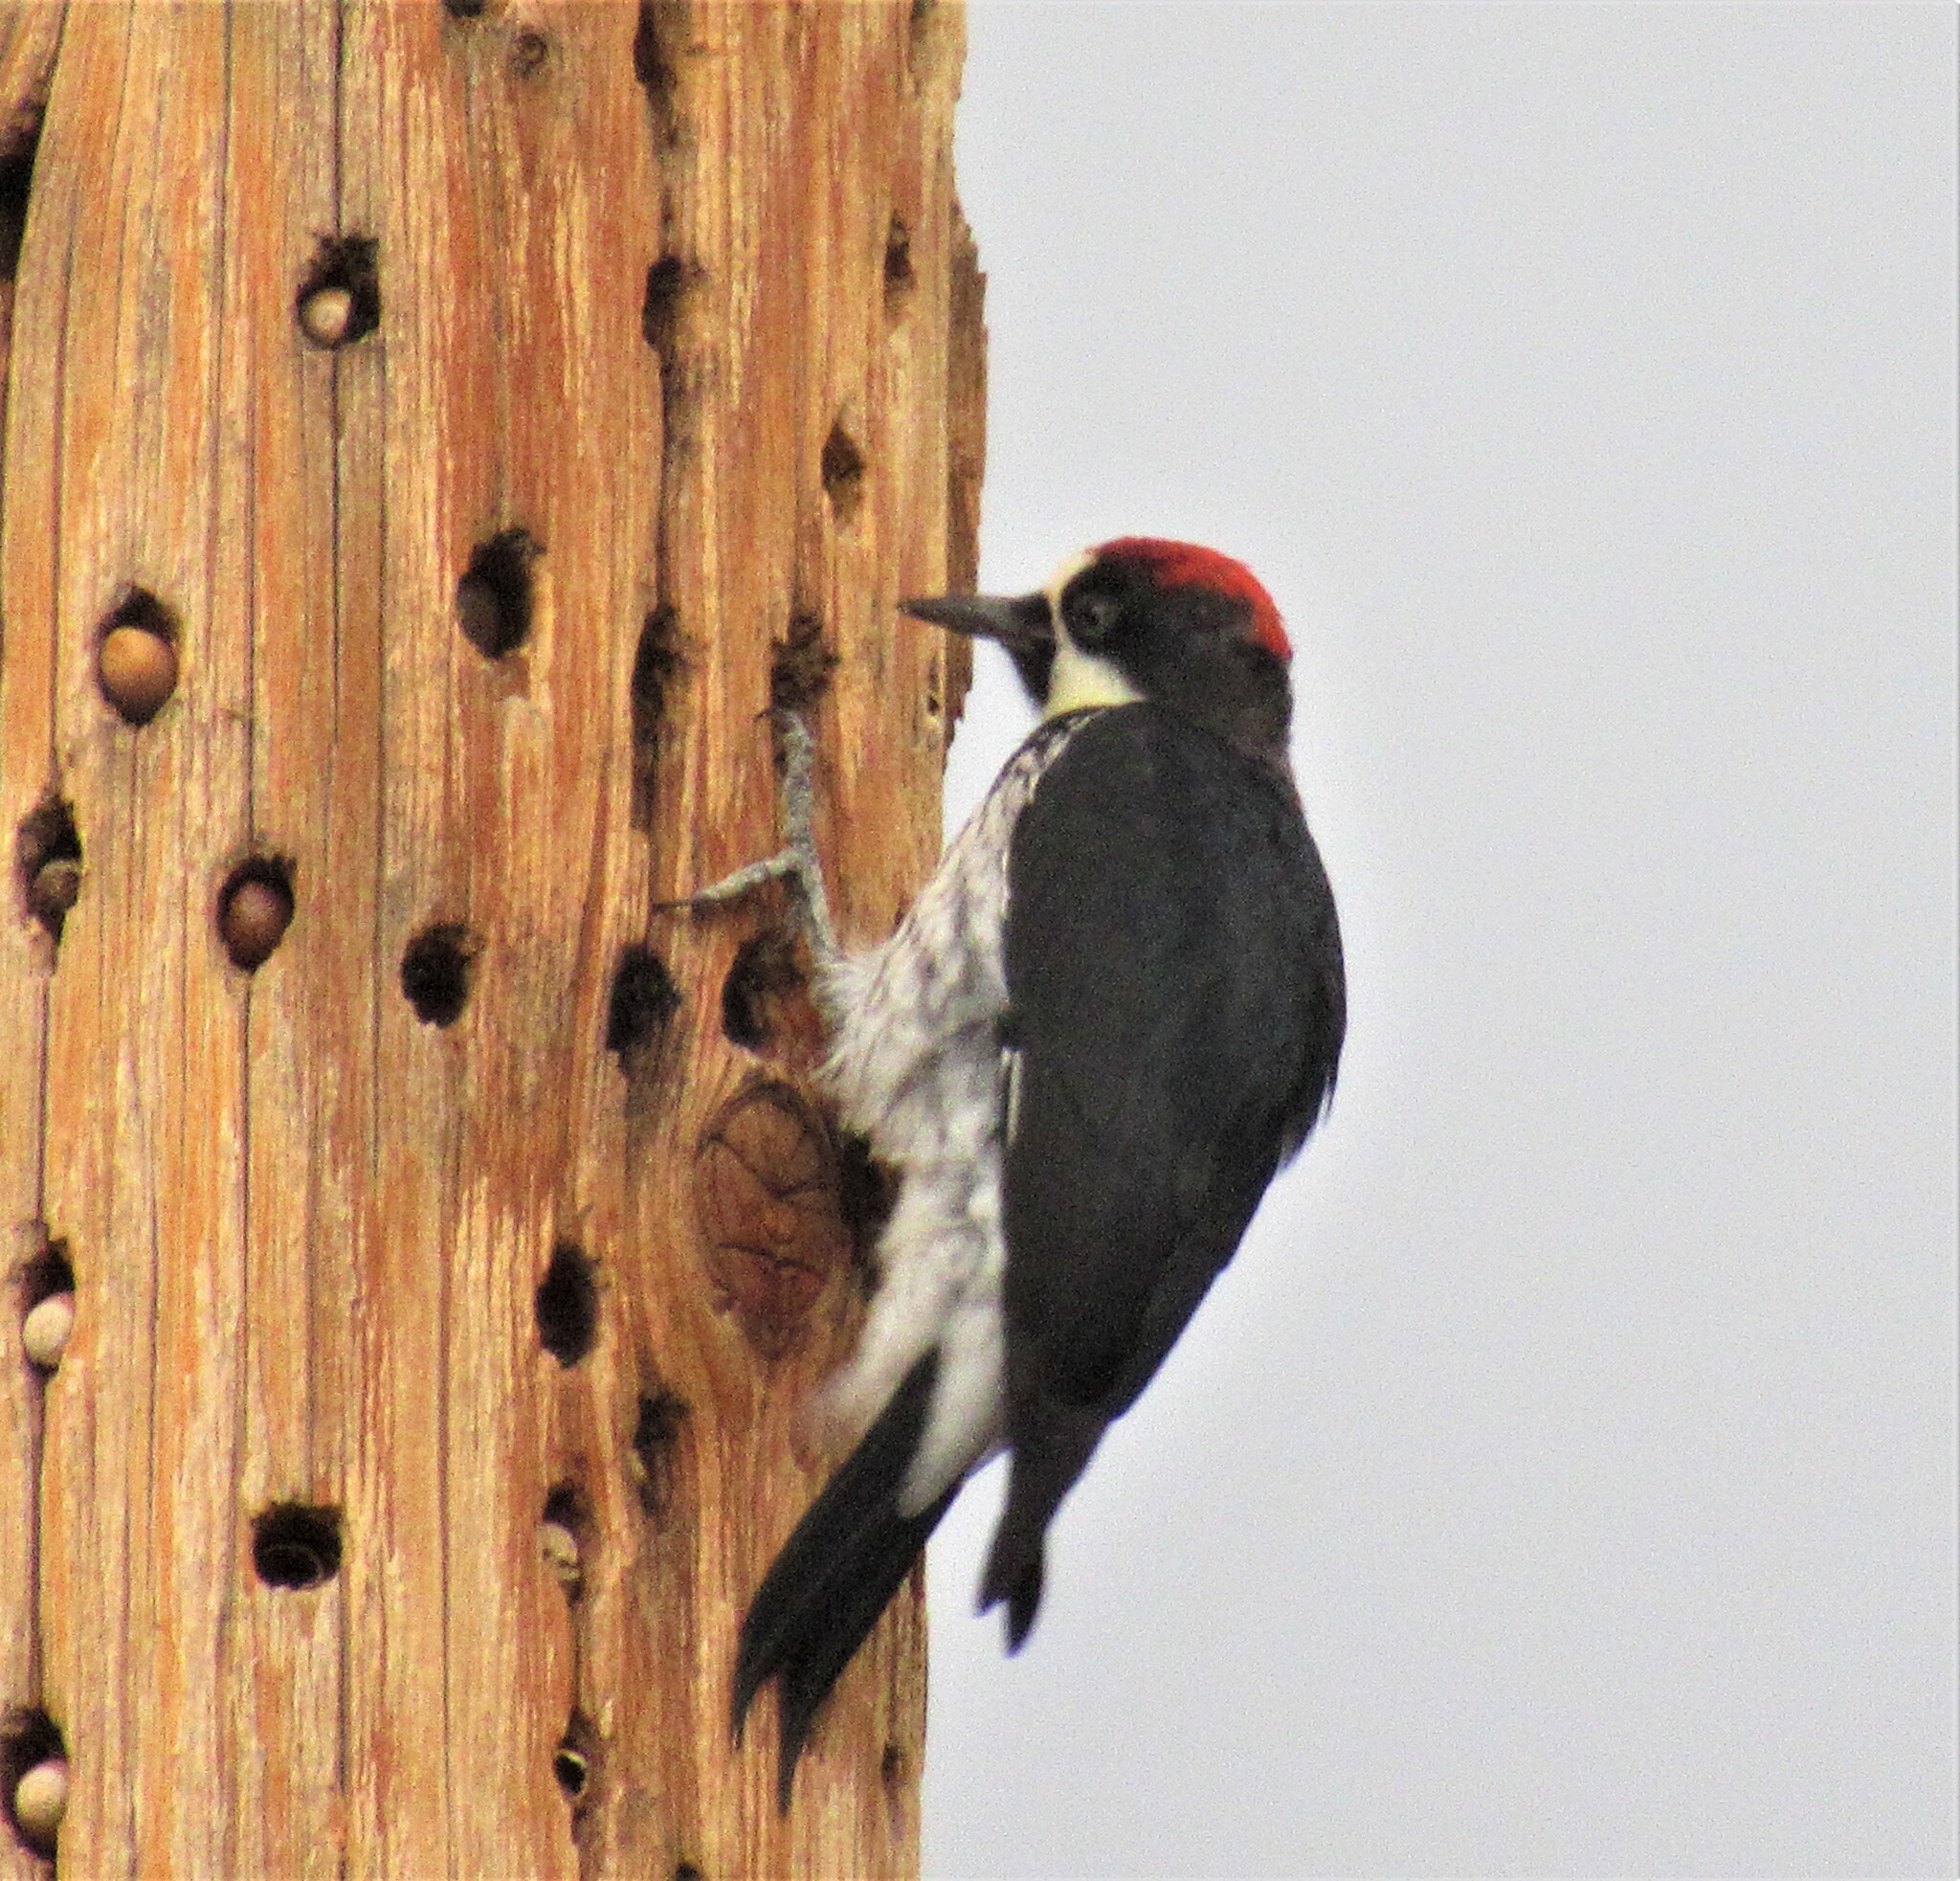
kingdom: Animalia
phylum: Chordata
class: Aves
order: Piciformes
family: Picidae
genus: Melanerpes
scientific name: Melanerpes formicivorus
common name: Acorn woodpecker
